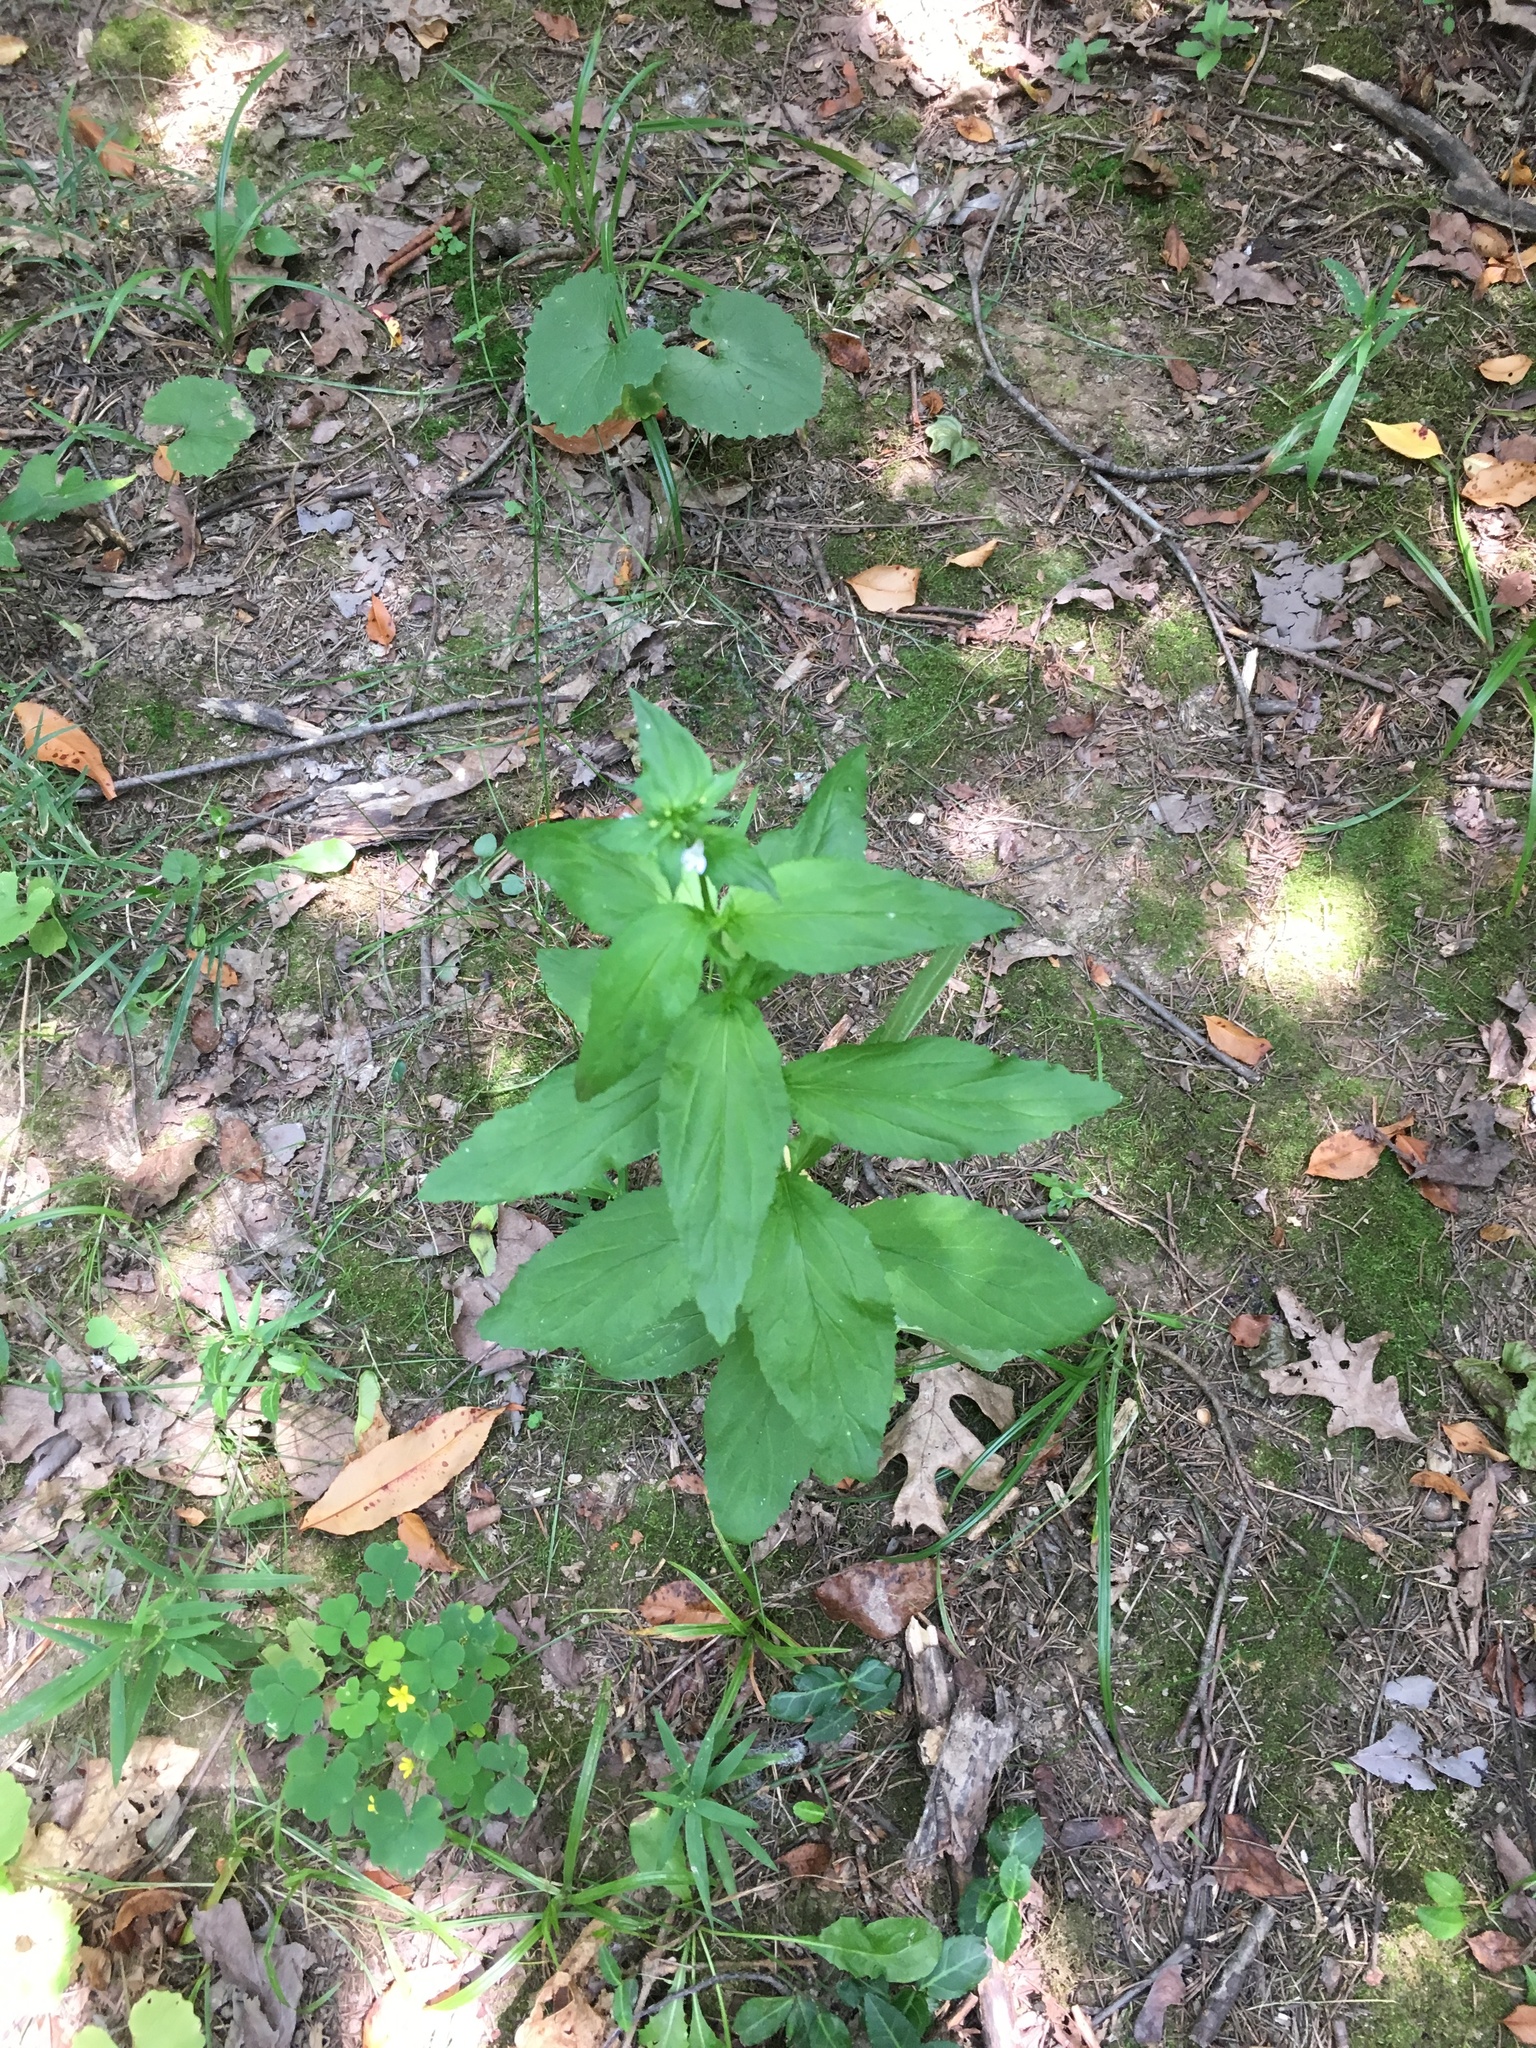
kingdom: Plantae
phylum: Tracheophyta
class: Magnoliopsida
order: Asterales
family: Campanulaceae
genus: Lobelia
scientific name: Lobelia inflata
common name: Indian tobacco
